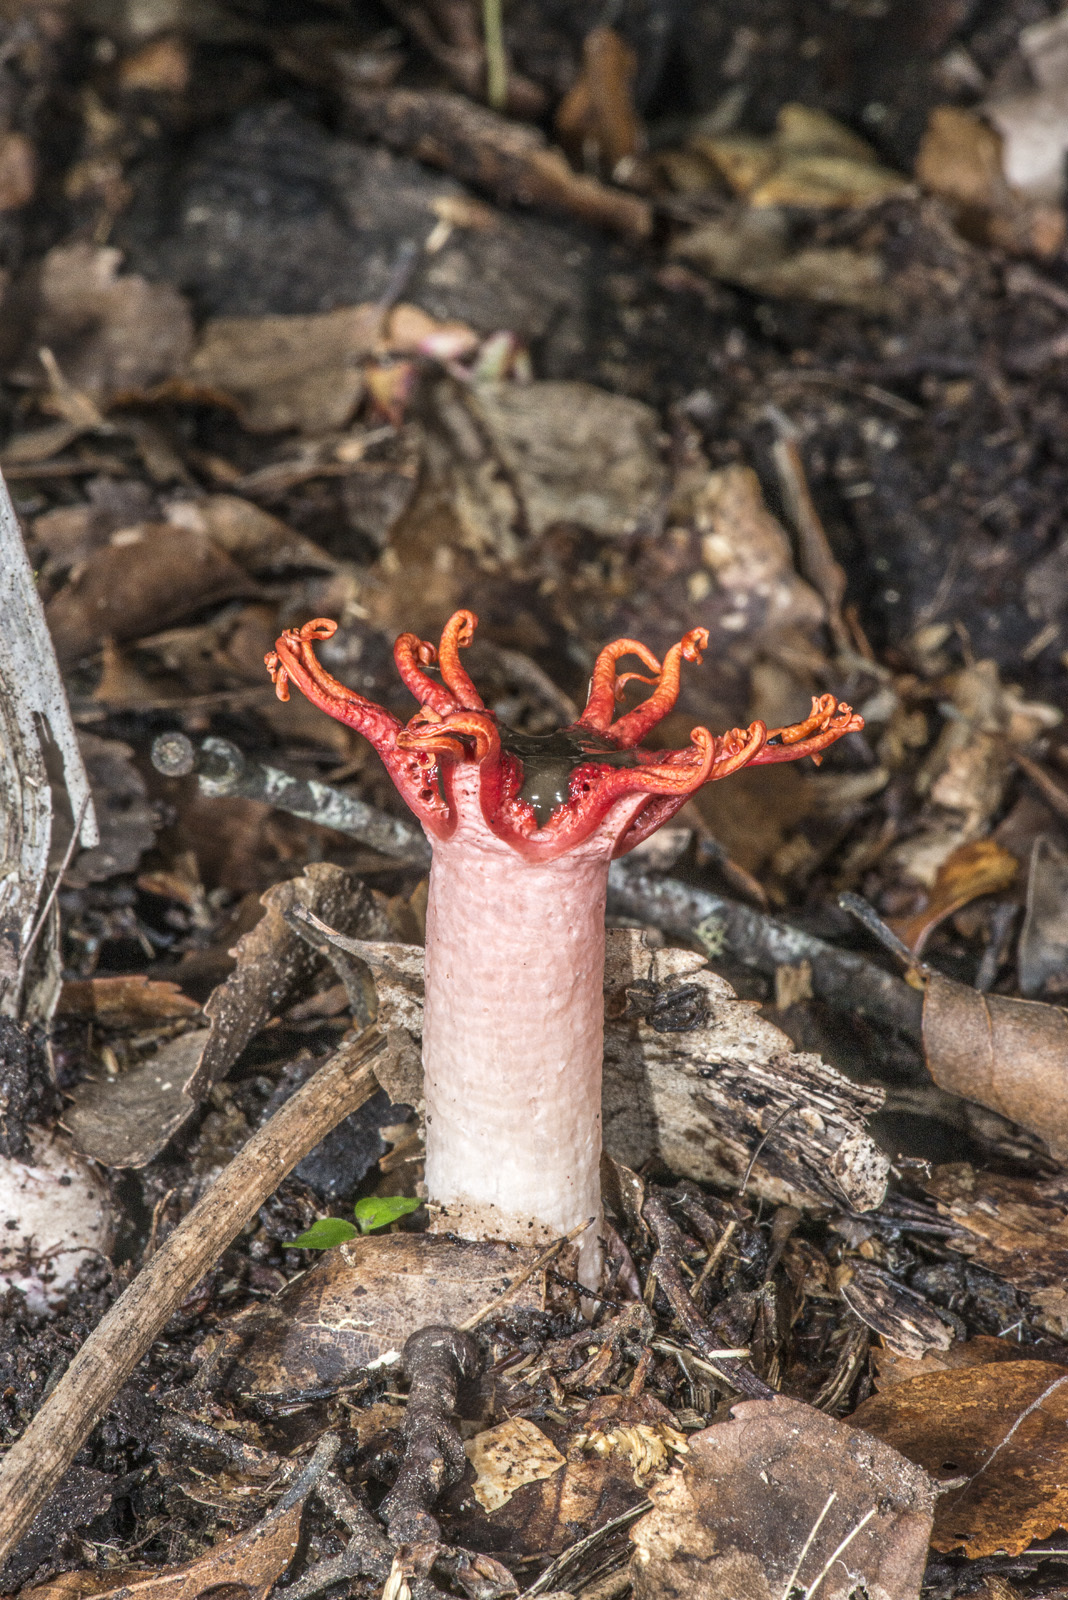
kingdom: Fungi
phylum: Basidiomycota
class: Agaricomycetes
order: Phallales
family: Phallaceae
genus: Aseroe
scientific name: Aseroe rubra
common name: Starfish fungus
